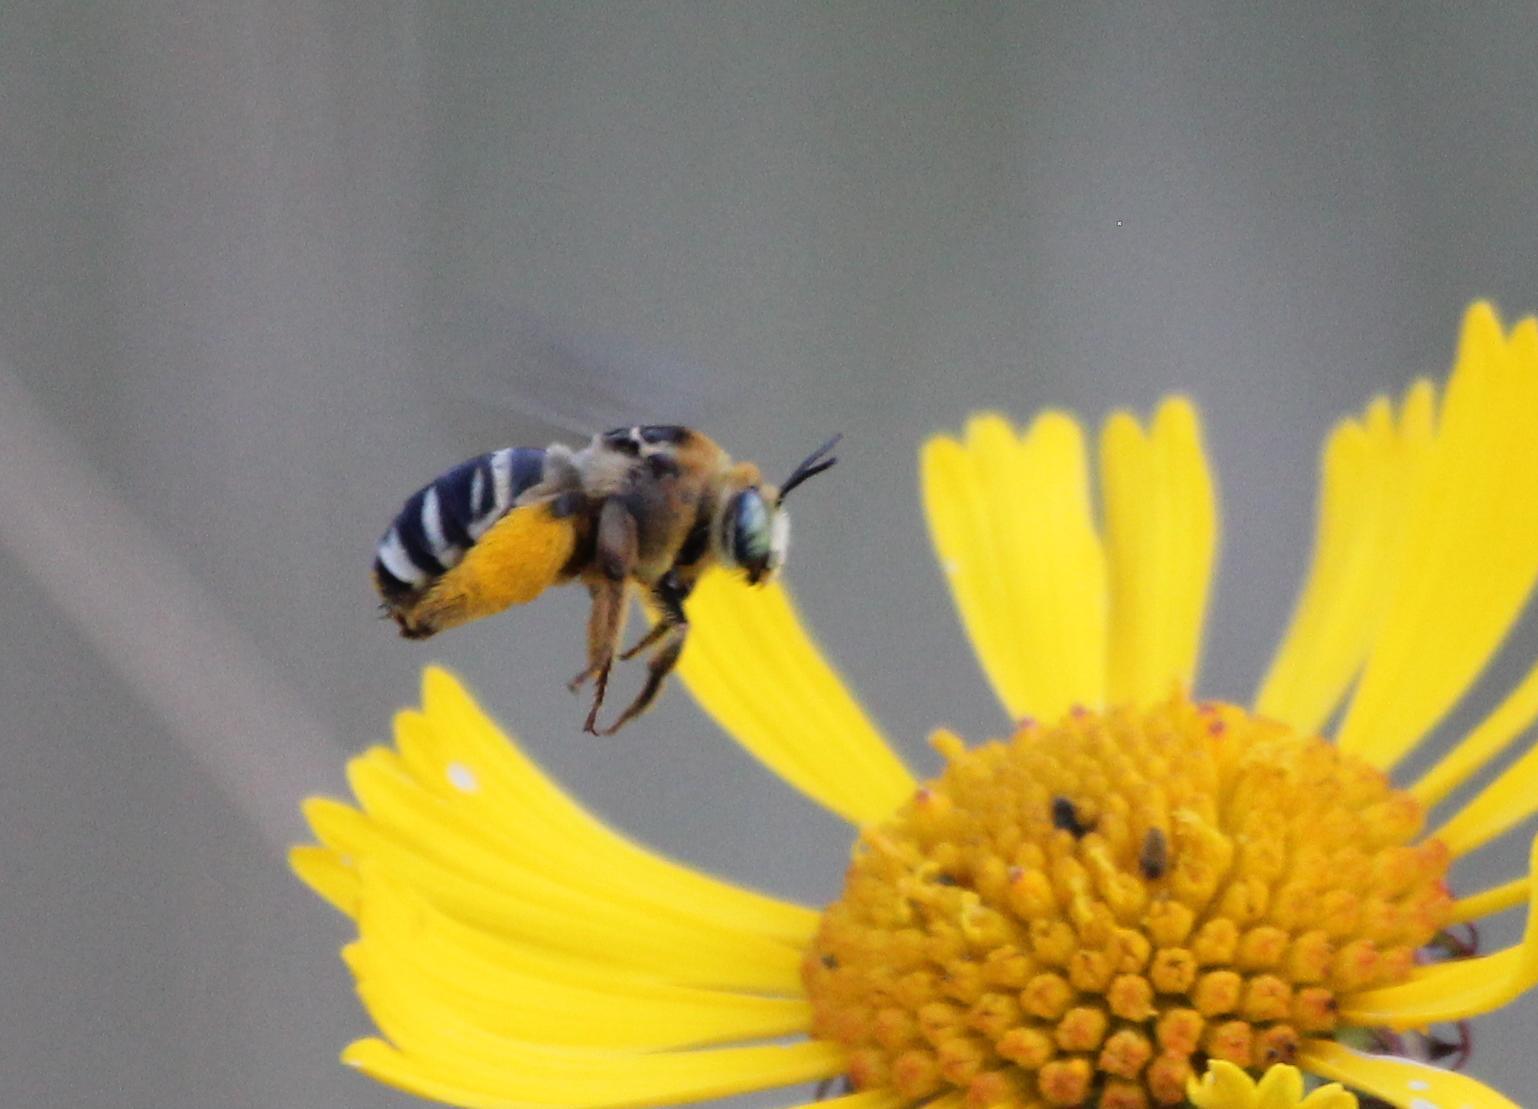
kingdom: Animalia
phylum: Arthropoda
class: Insecta
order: Hymenoptera
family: Apidae
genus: Svastra
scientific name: Svastra aegis
